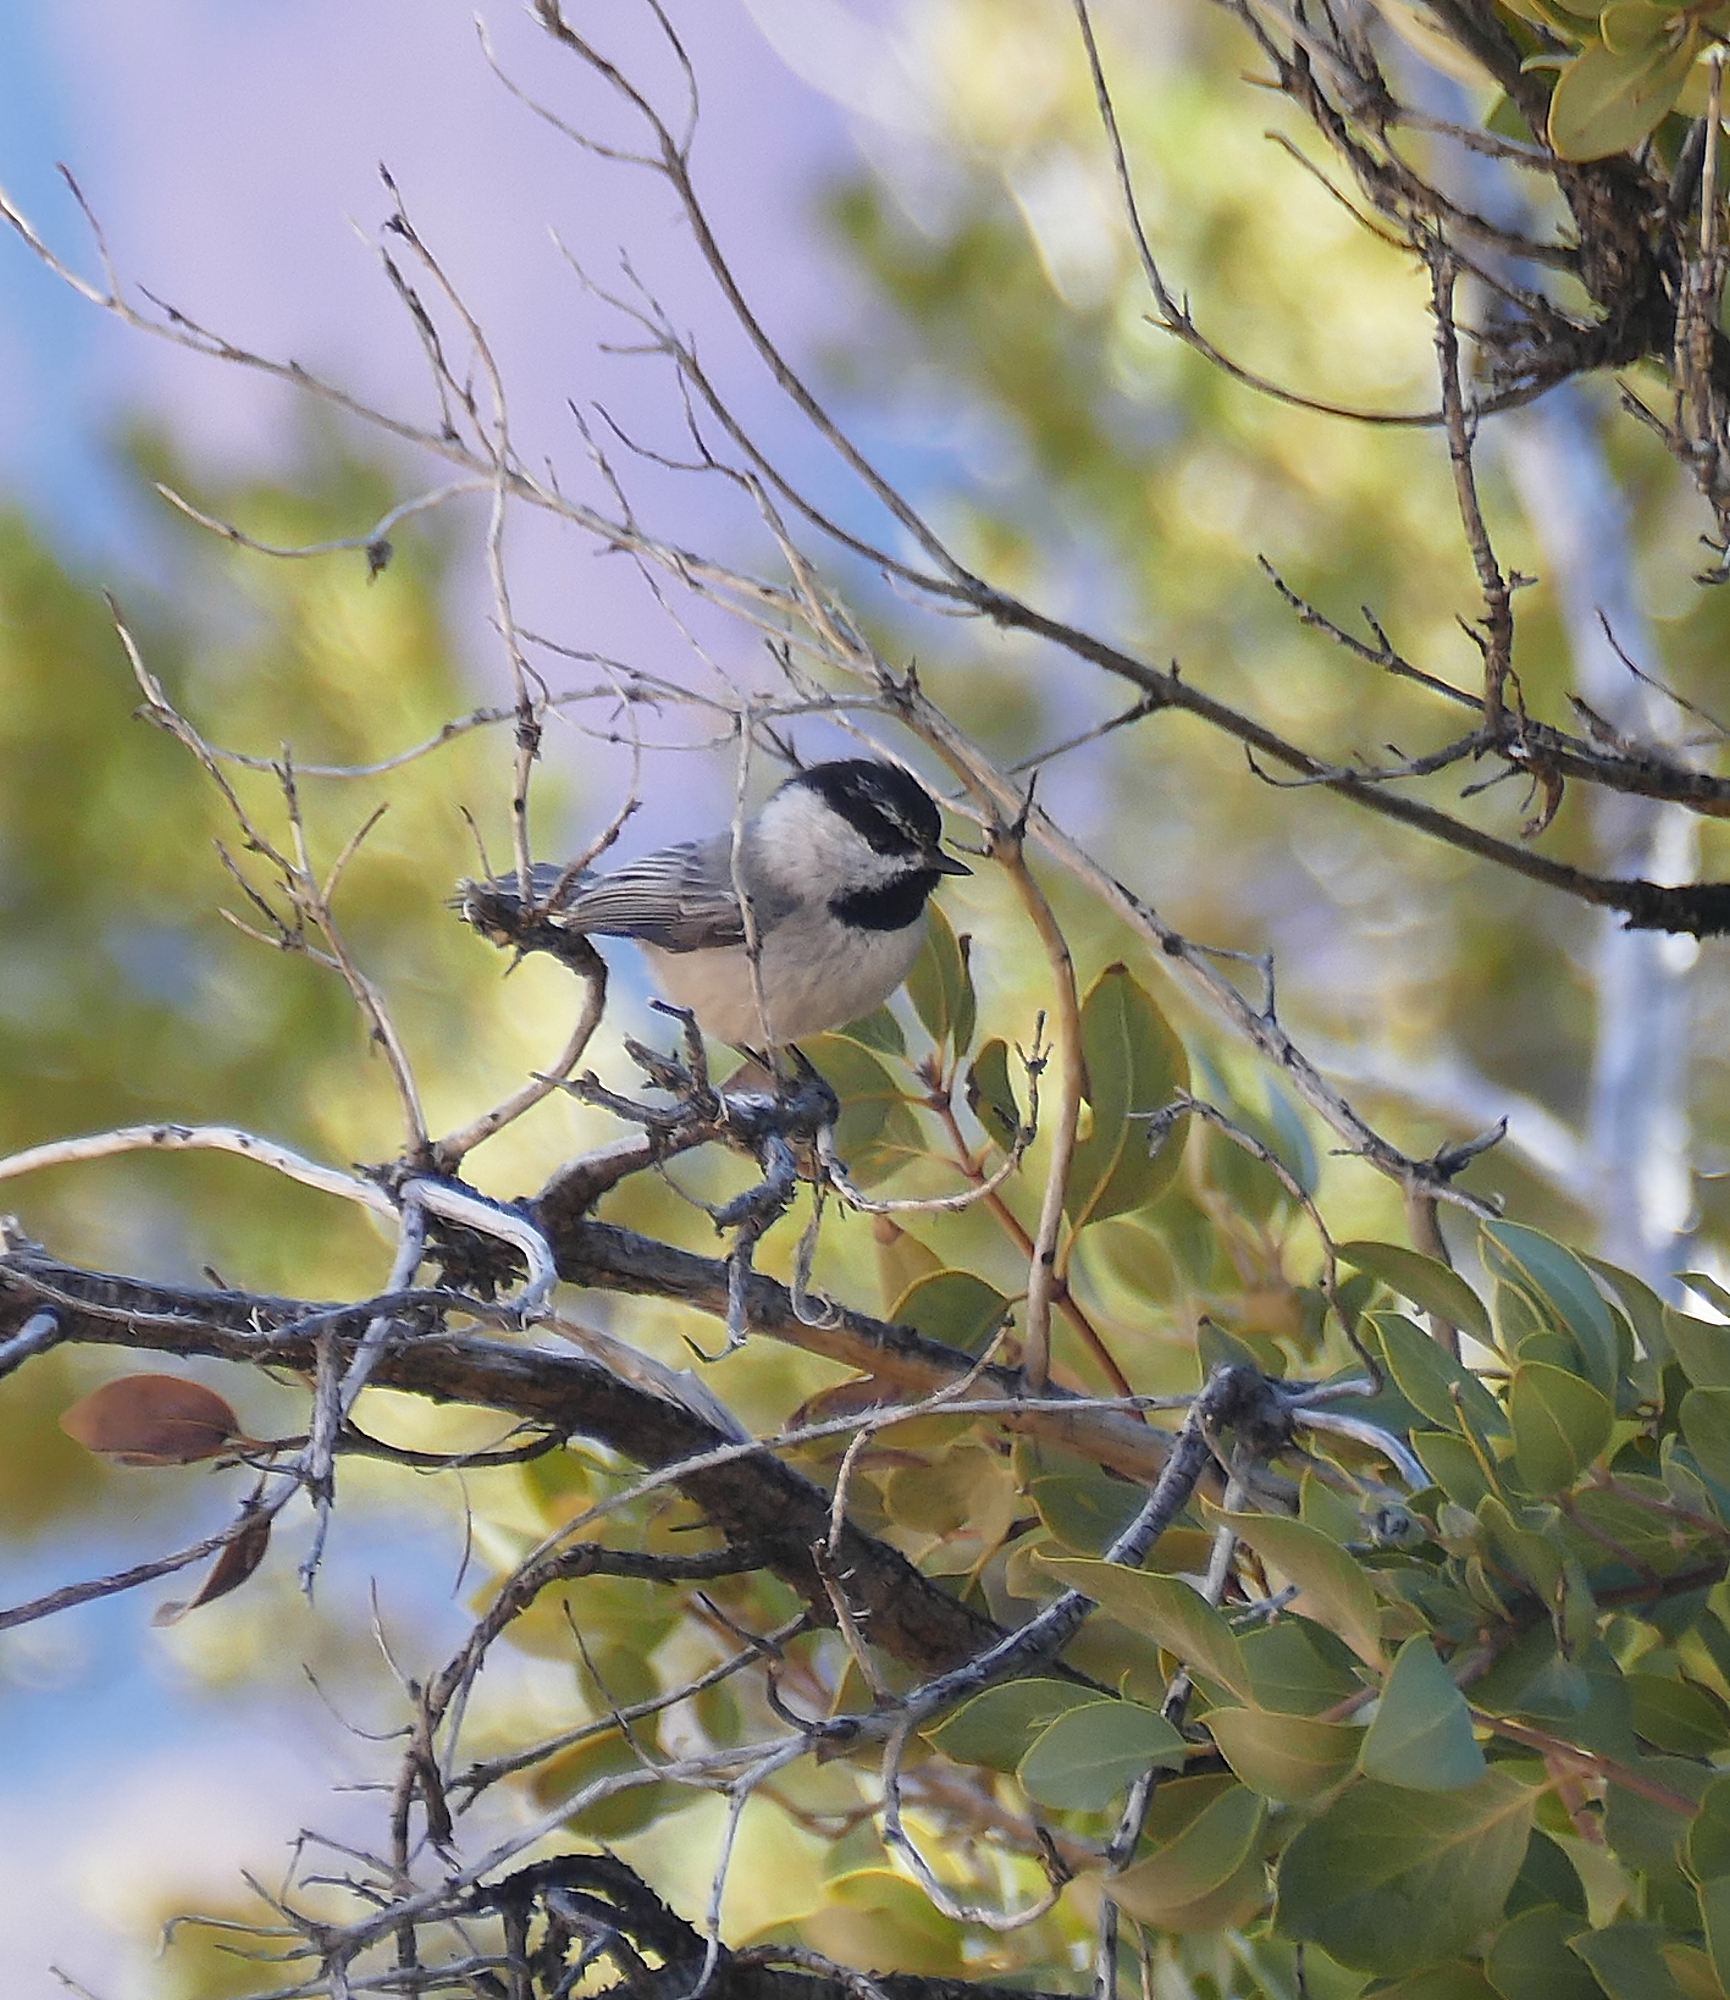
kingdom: Animalia
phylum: Chordata
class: Aves
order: Passeriformes
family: Paridae
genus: Poecile
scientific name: Poecile gambeli
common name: Mountain chickadee
